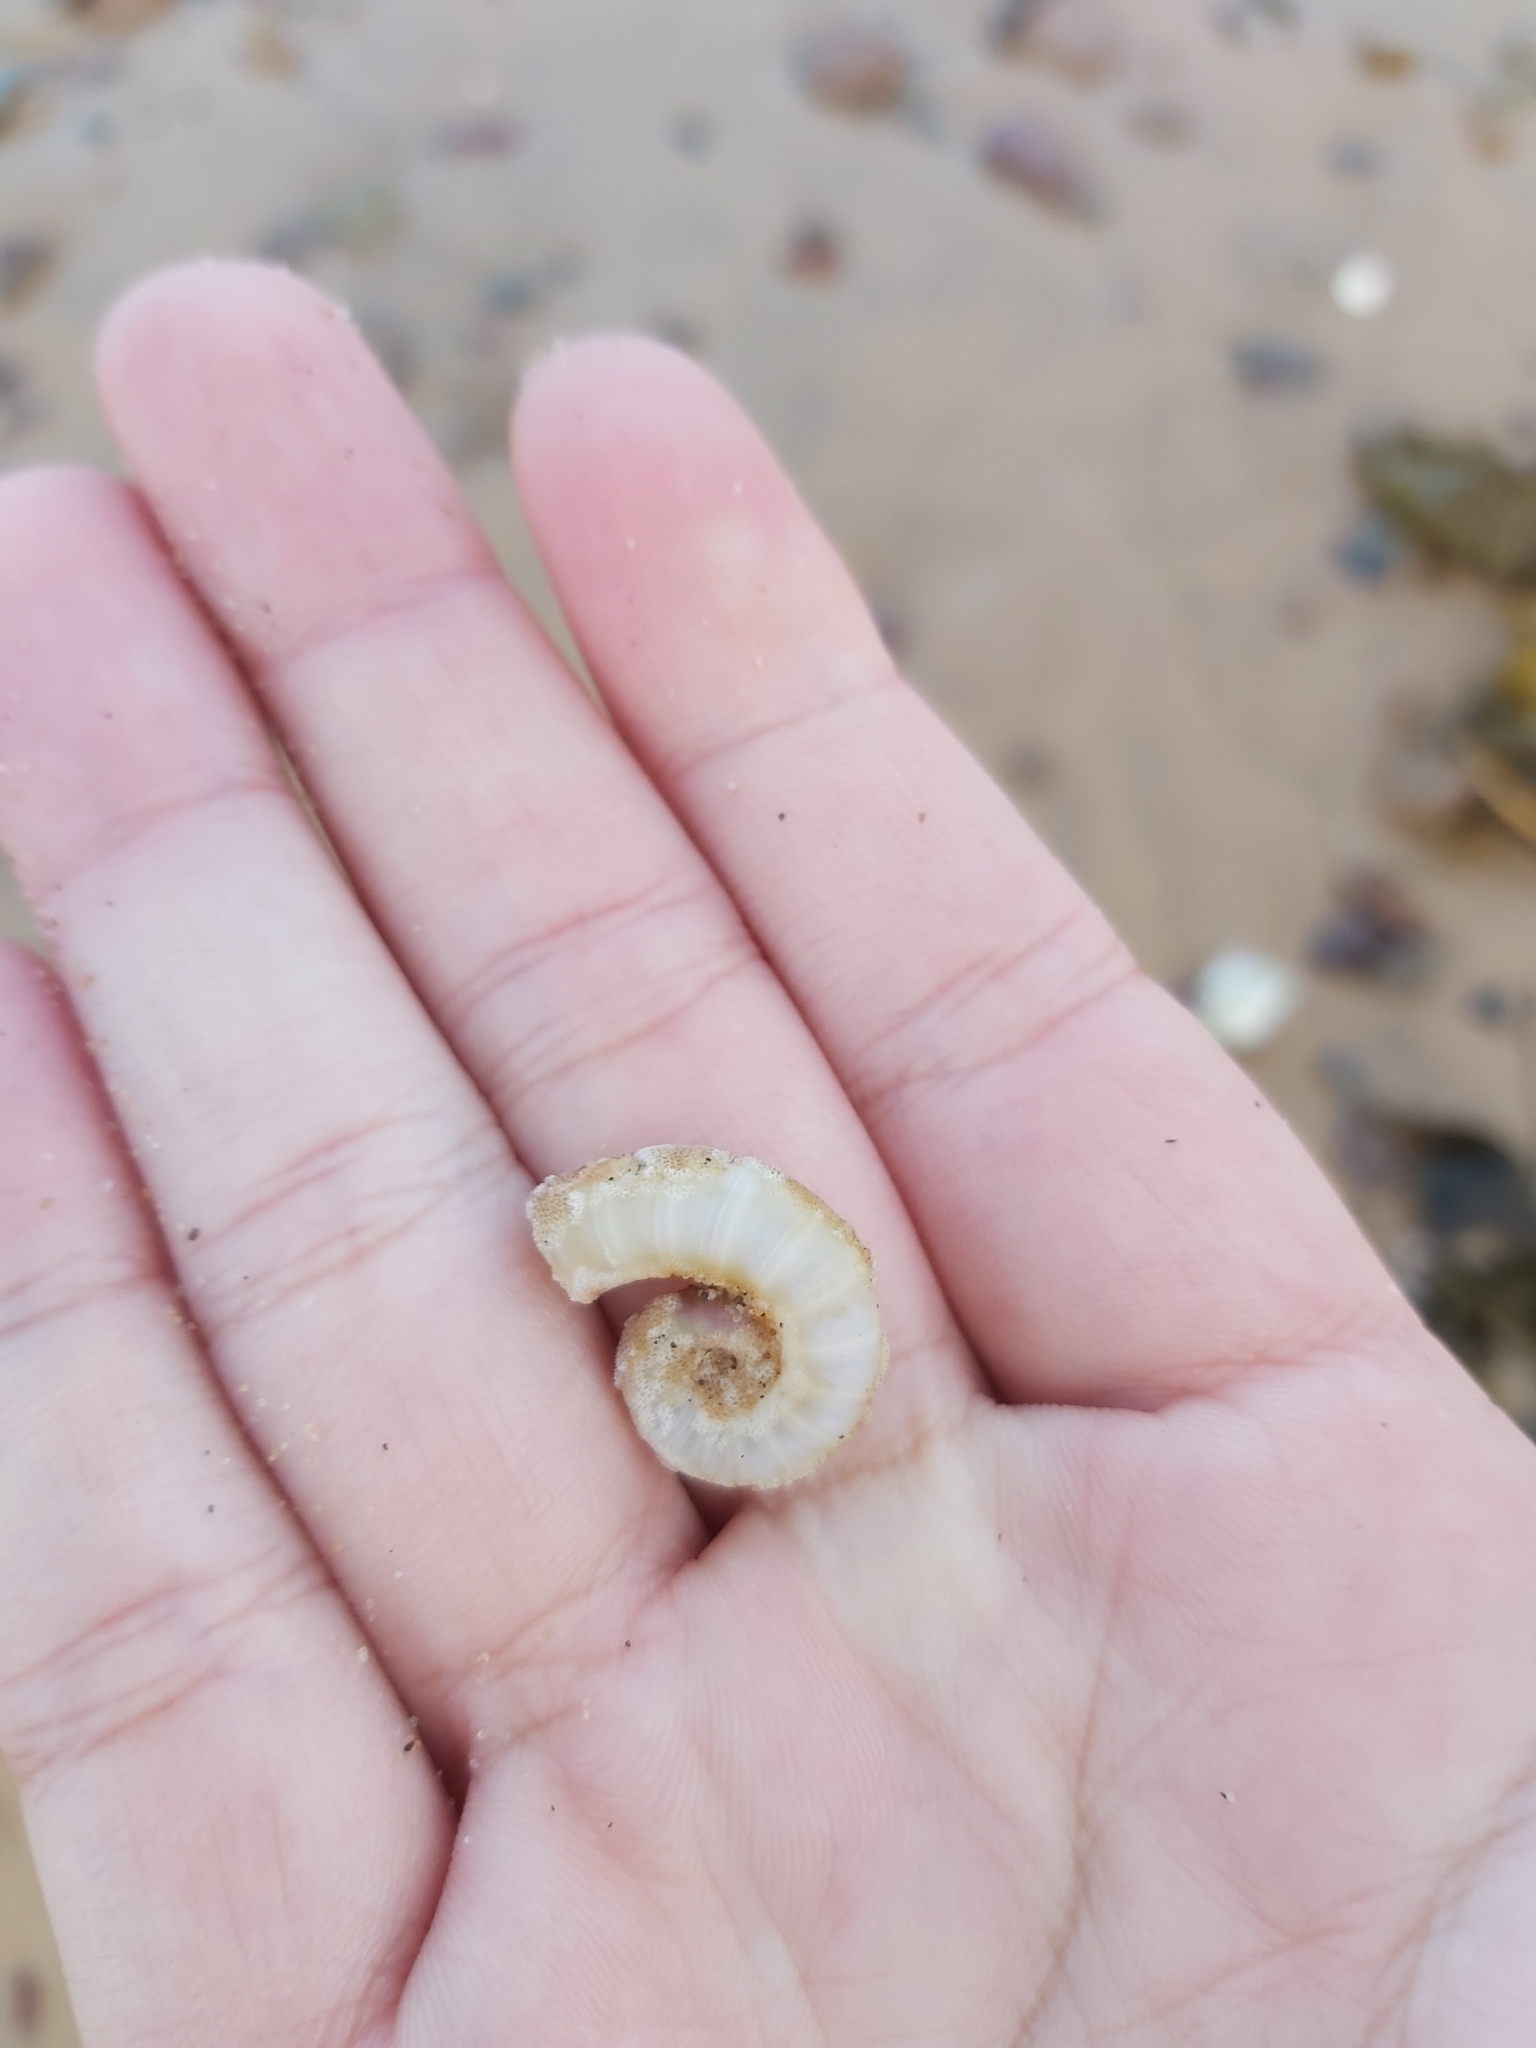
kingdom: Animalia
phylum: Mollusca
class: Cephalopoda
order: Spirulida
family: Spirulidae
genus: Spirula
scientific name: Spirula spirula
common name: Ram's horn squid
